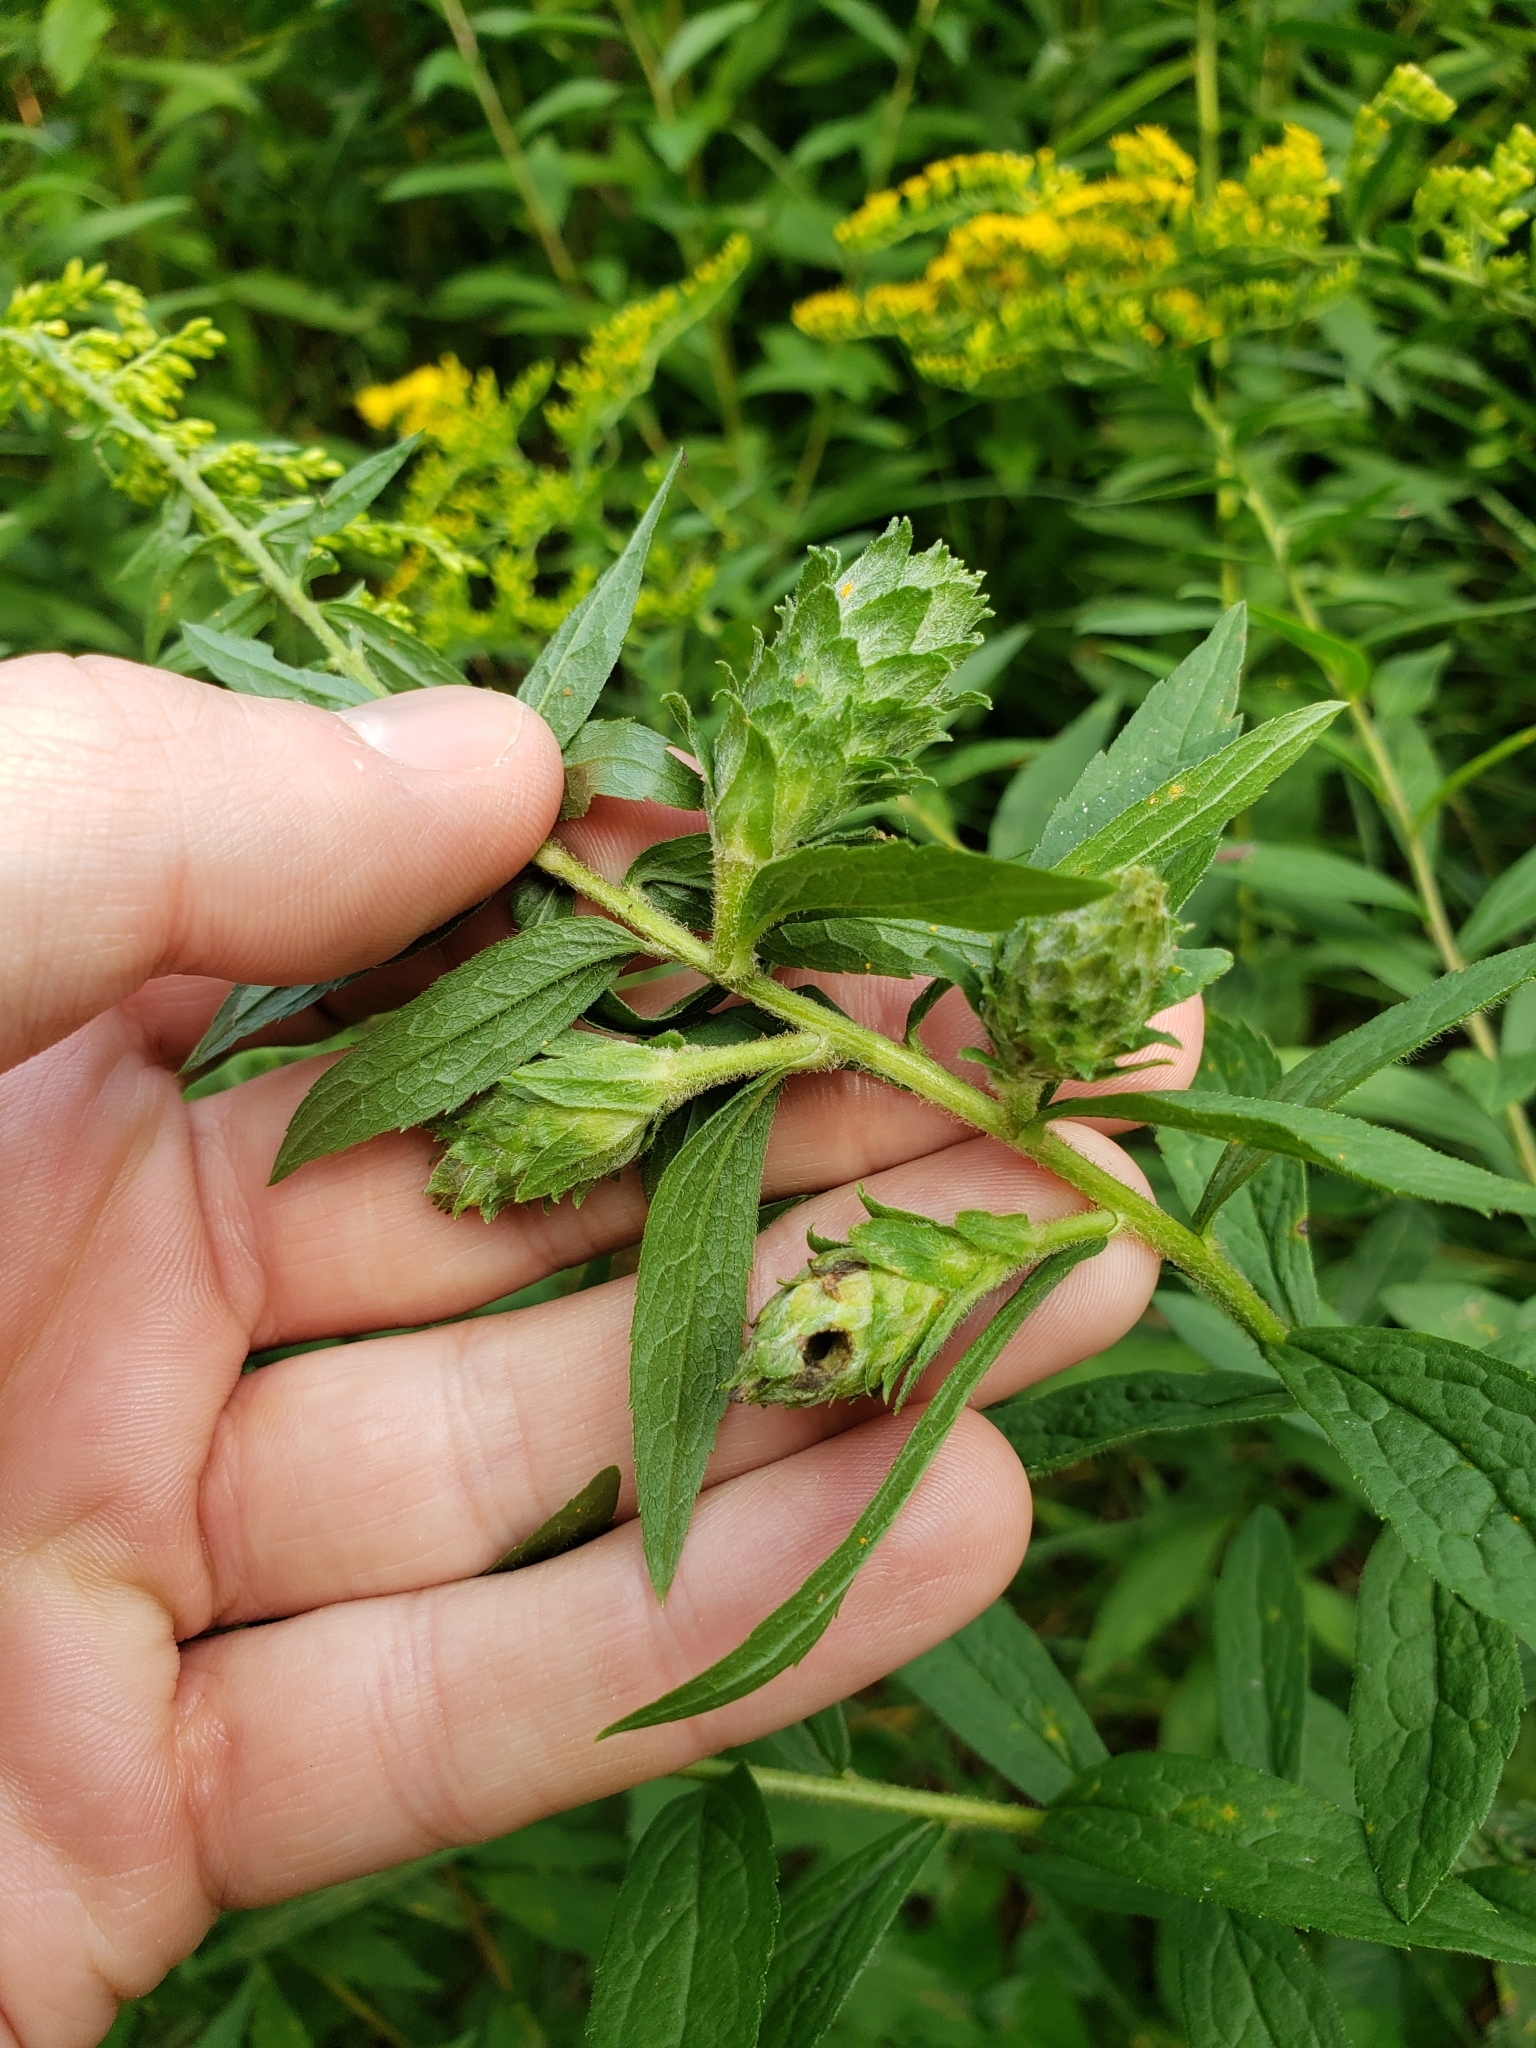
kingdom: Animalia
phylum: Arthropoda
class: Insecta
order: Diptera
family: Tephritidae
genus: Procecidochares
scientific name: Procecidochares atra
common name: Goldenrod brussels sprout gall fly
